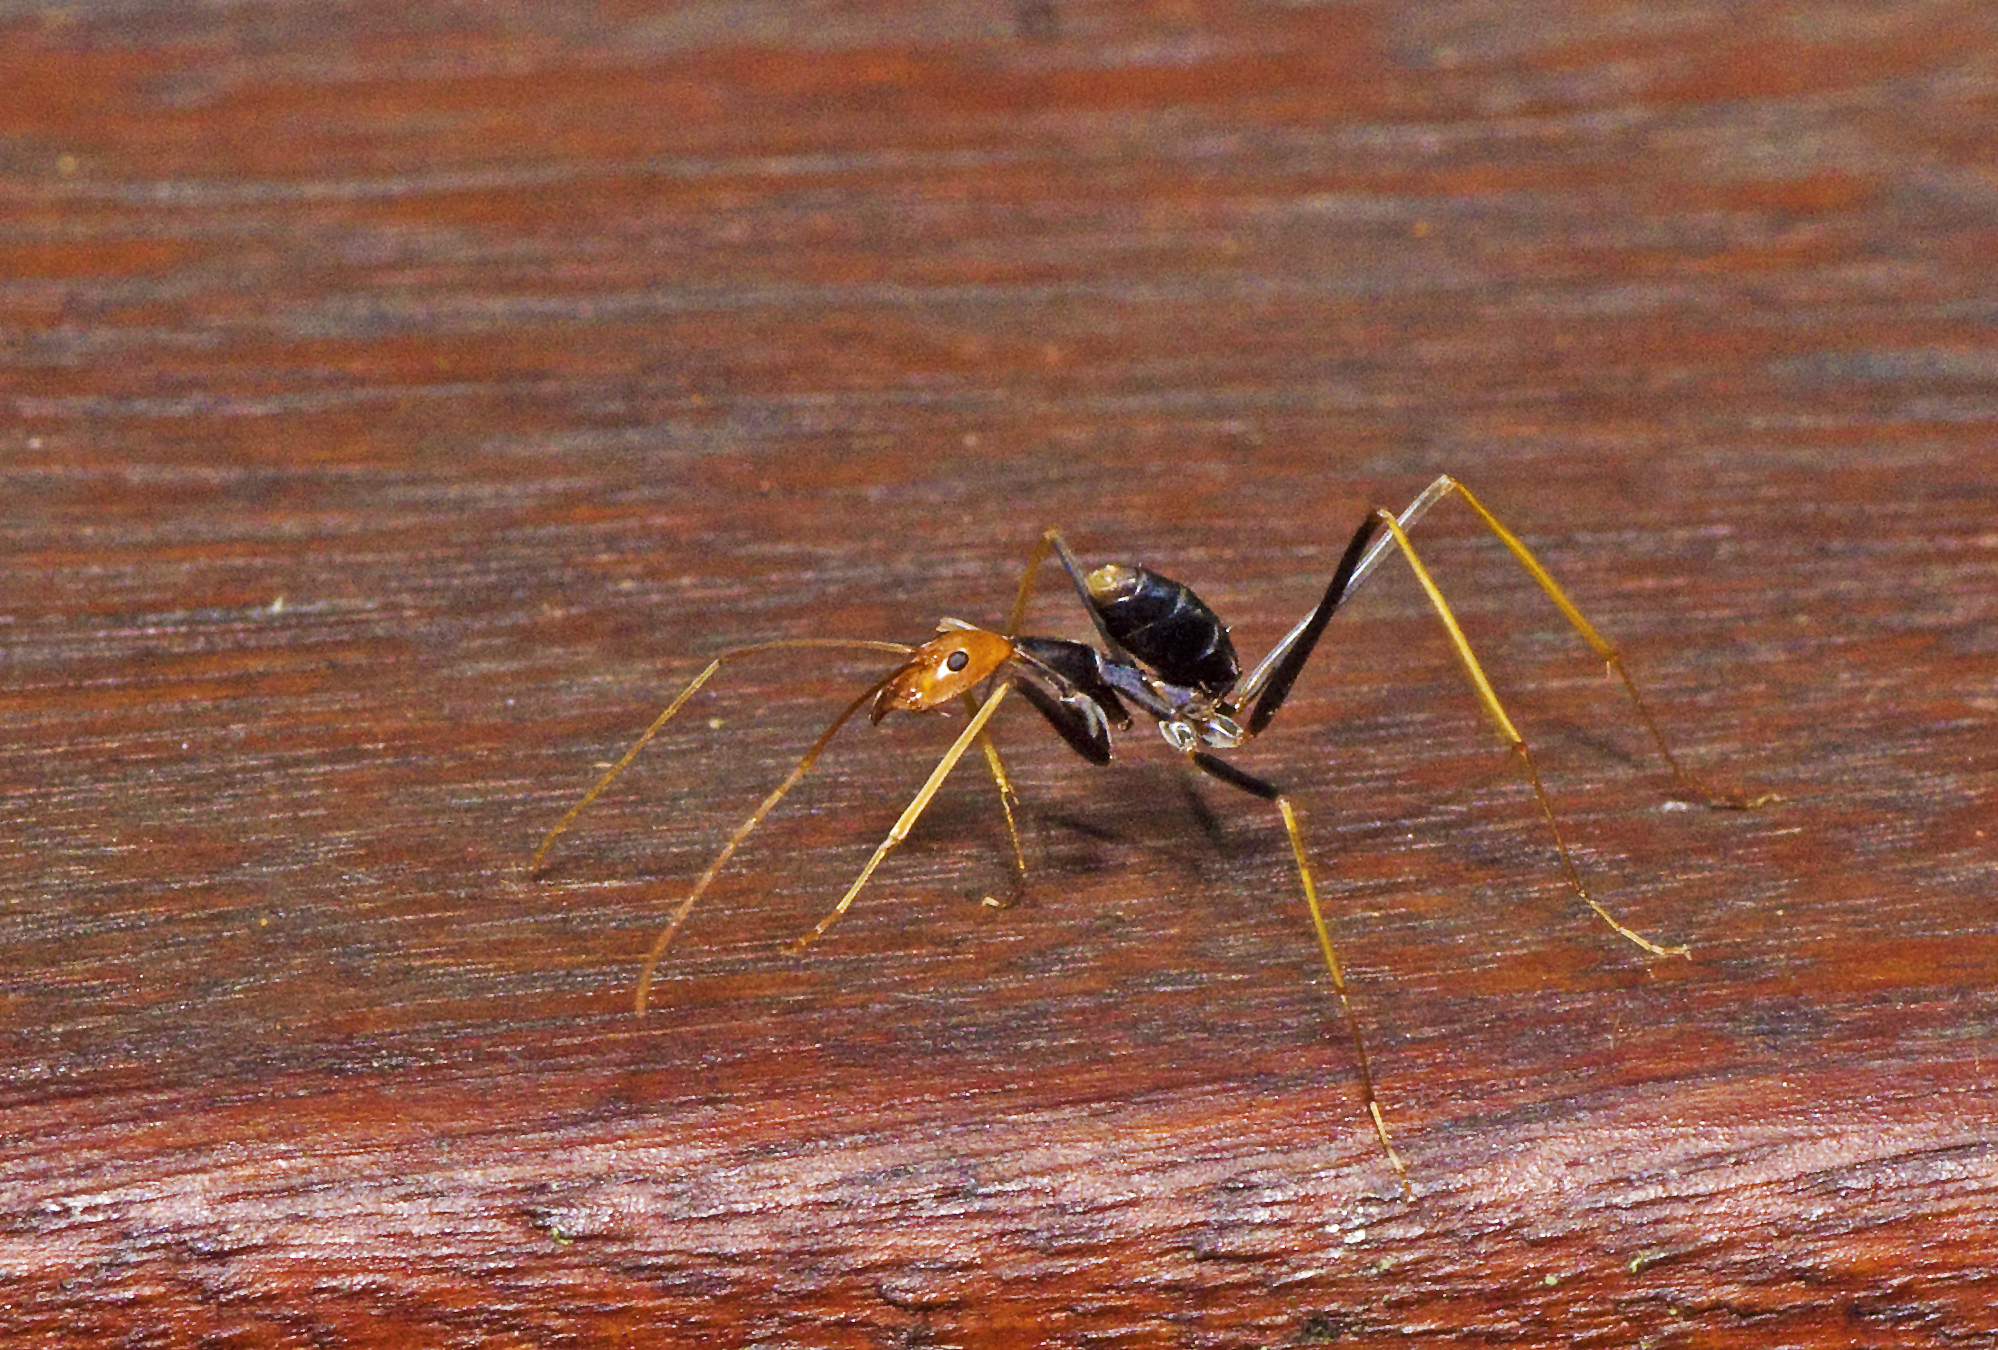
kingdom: Animalia
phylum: Arthropoda
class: Insecta
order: Hymenoptera
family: Formicidae
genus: Leptomyrmex
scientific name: Leptomyrmex ruficeps
